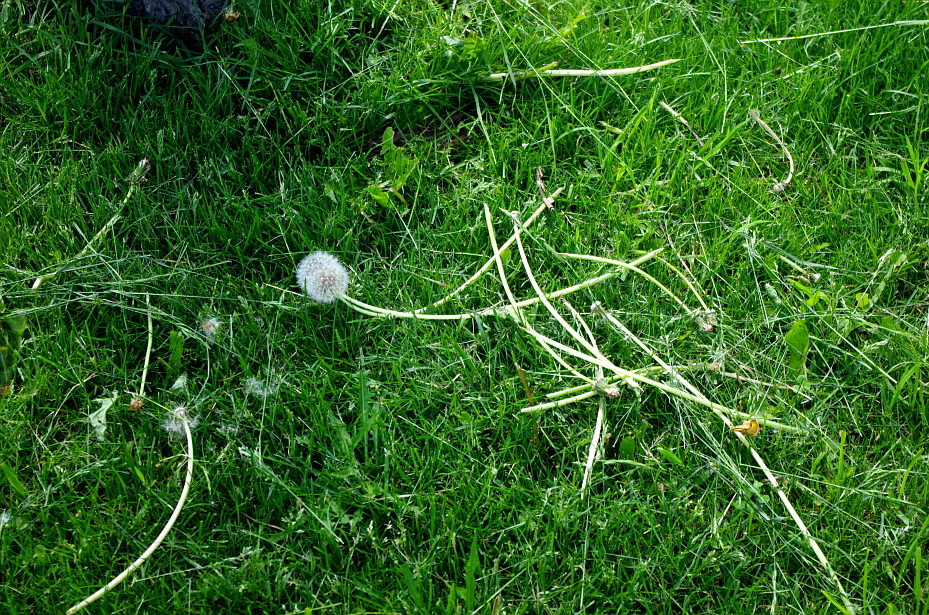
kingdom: Plantae
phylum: Tracheophyta
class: Magnoliopsida
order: Asterales
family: Asteraceae
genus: Taraxacum
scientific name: Taraxacum officinale
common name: Common dandelion
